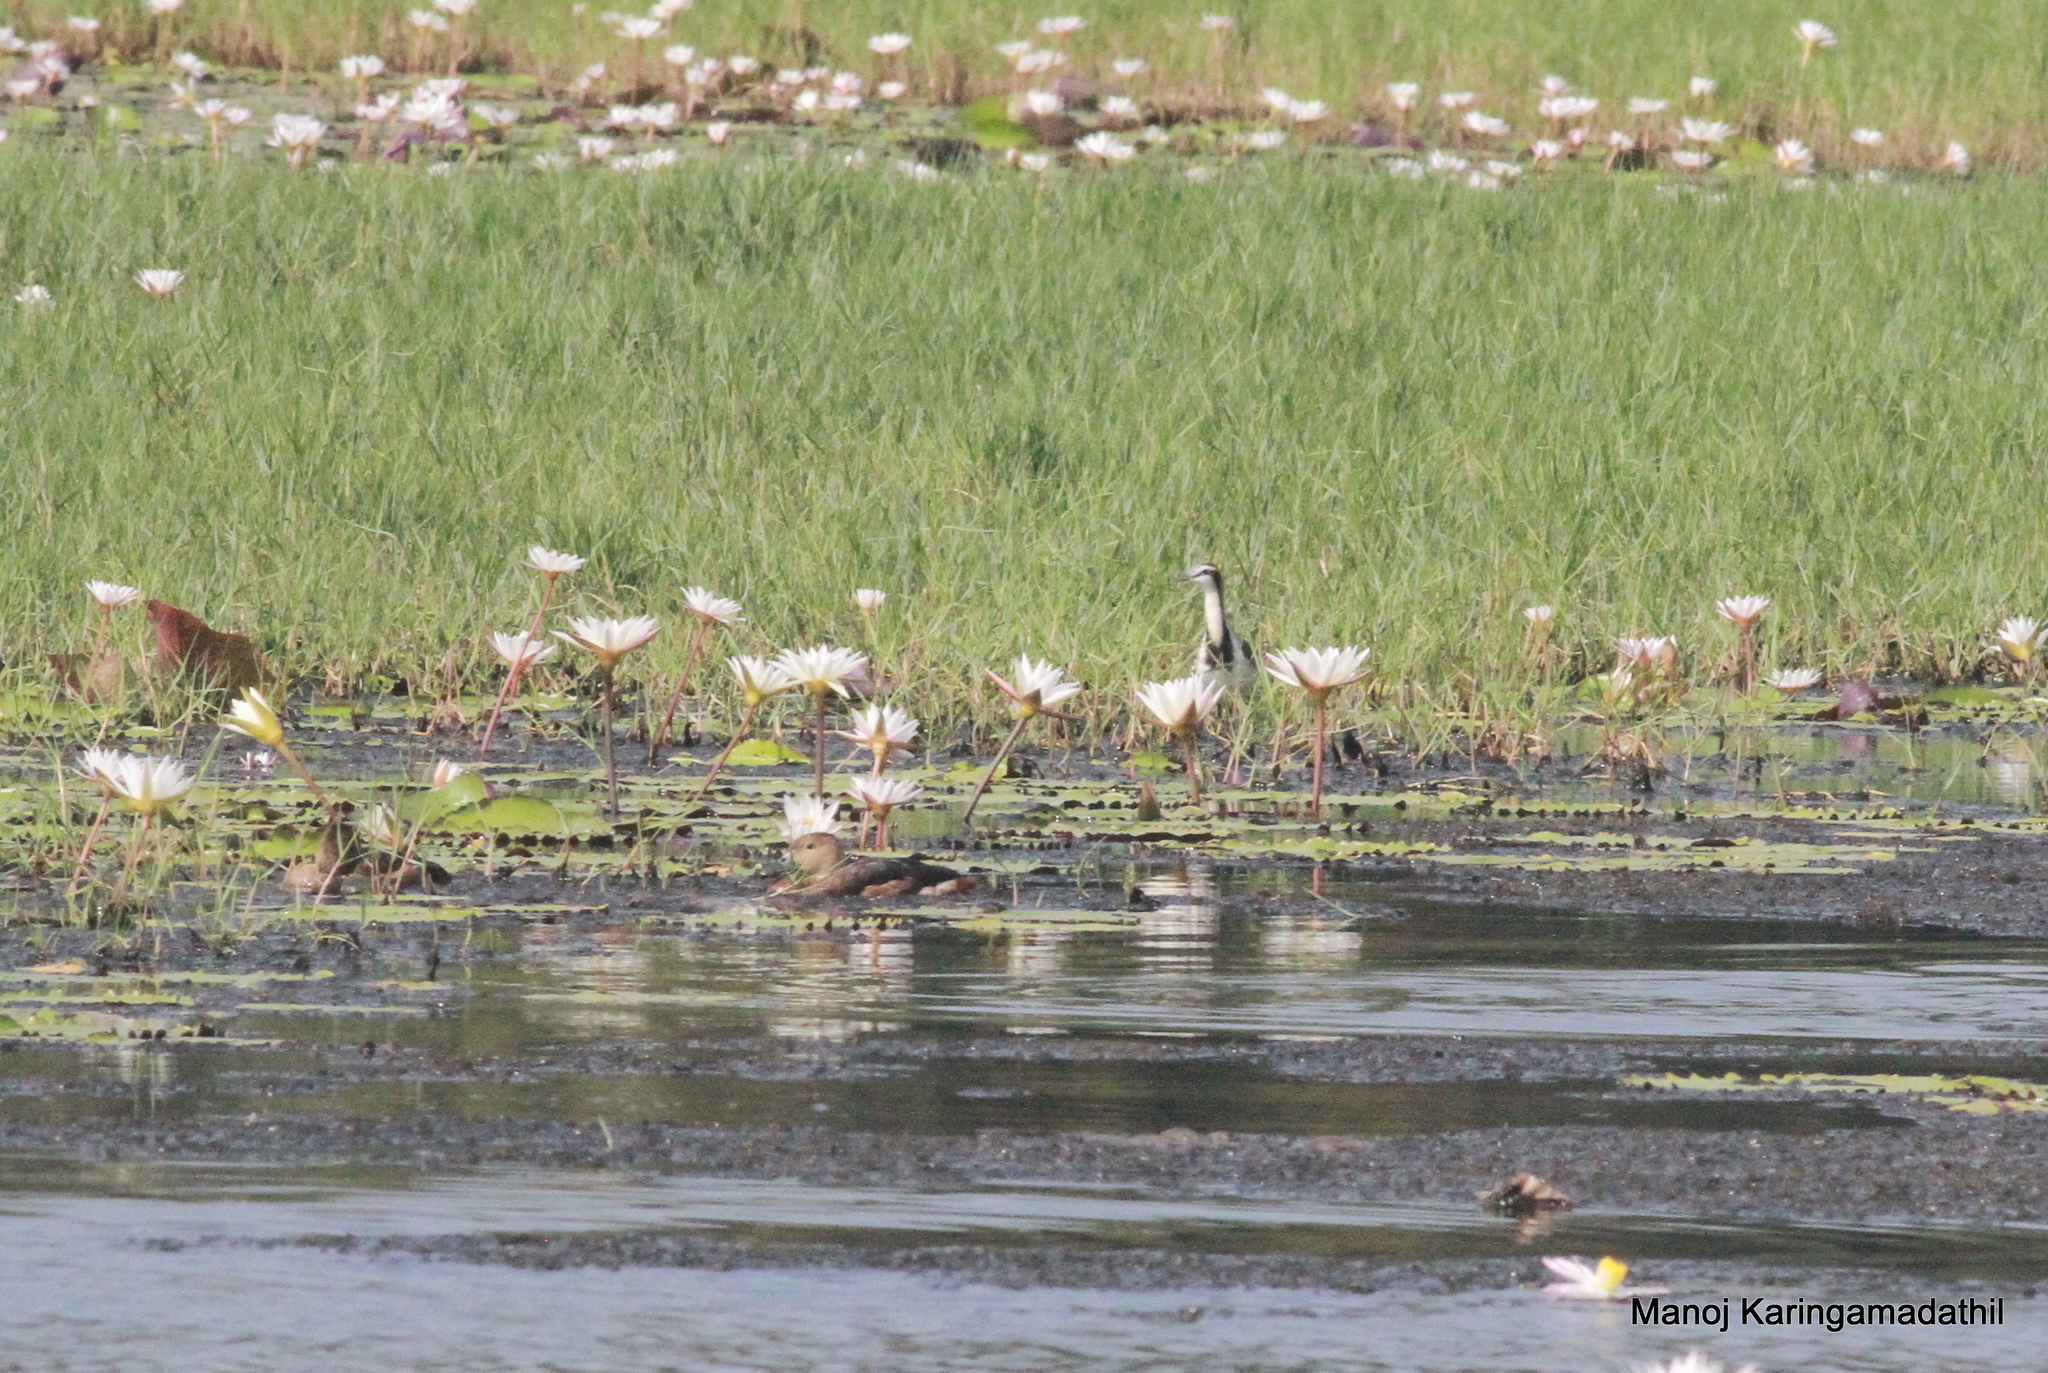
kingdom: Animalia
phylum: Chordata
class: Aves
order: Charadriiformes
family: Jacanidae
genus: Hydrophasianus
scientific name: Hydrophasianus chirurgus
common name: Pheasant-tailed jacana
